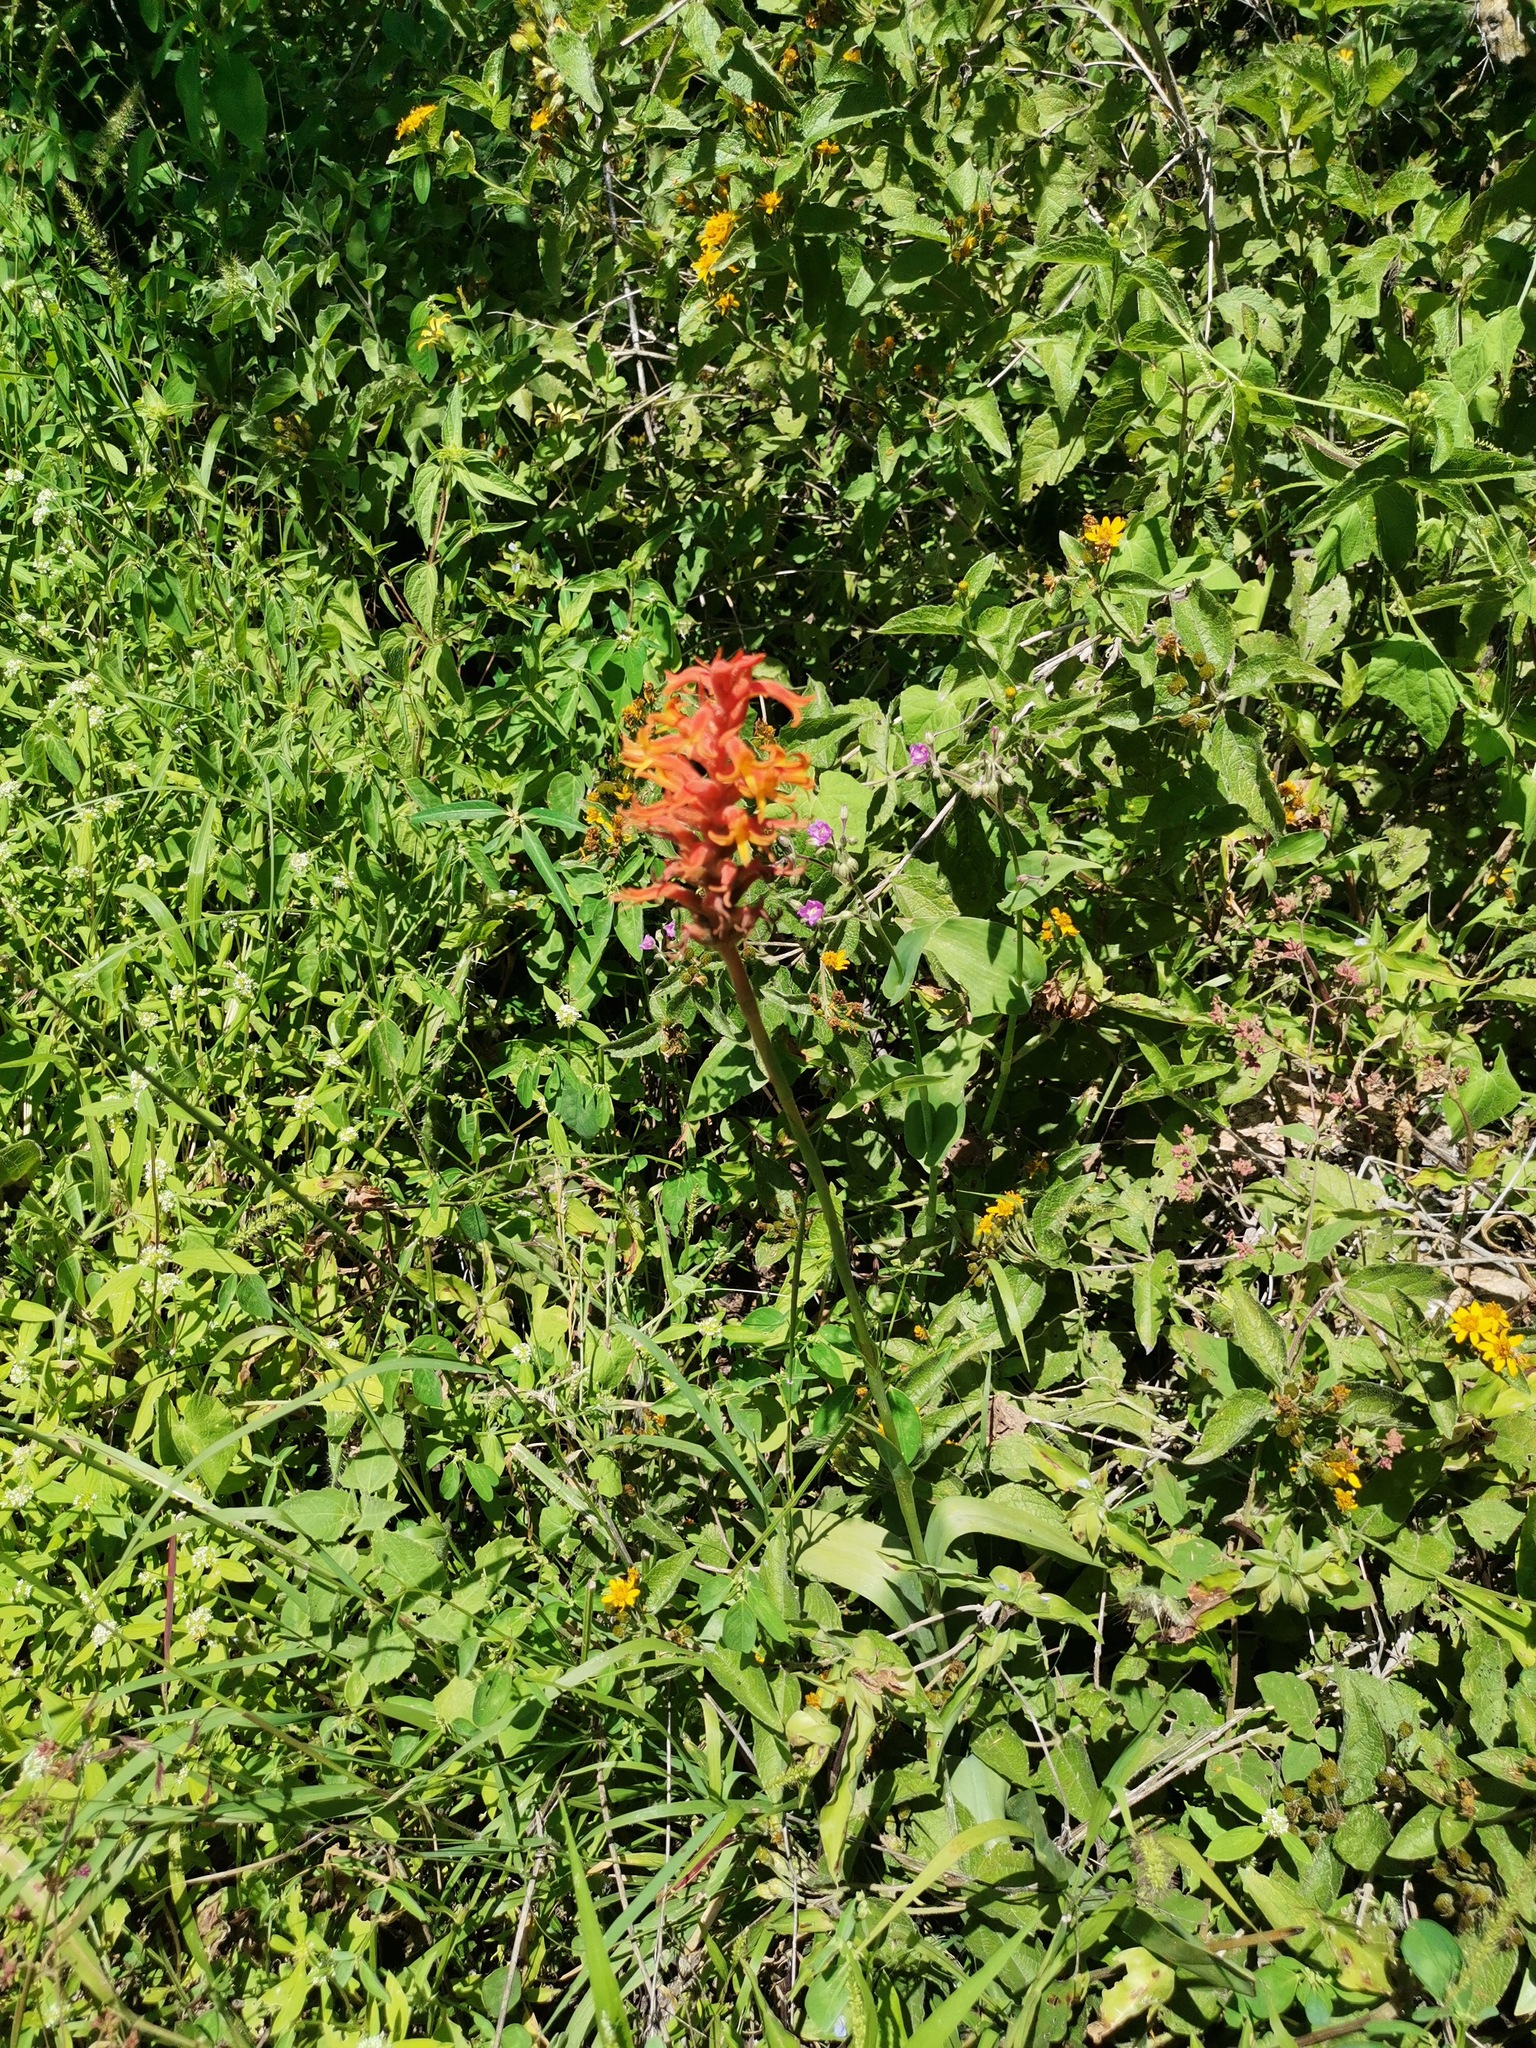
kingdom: Plantae
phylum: Tracheophyta
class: Liliopsida
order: Asparagales
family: Orchidaceae
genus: Dichromanthus
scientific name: Dichromanthus cinnabarinus
